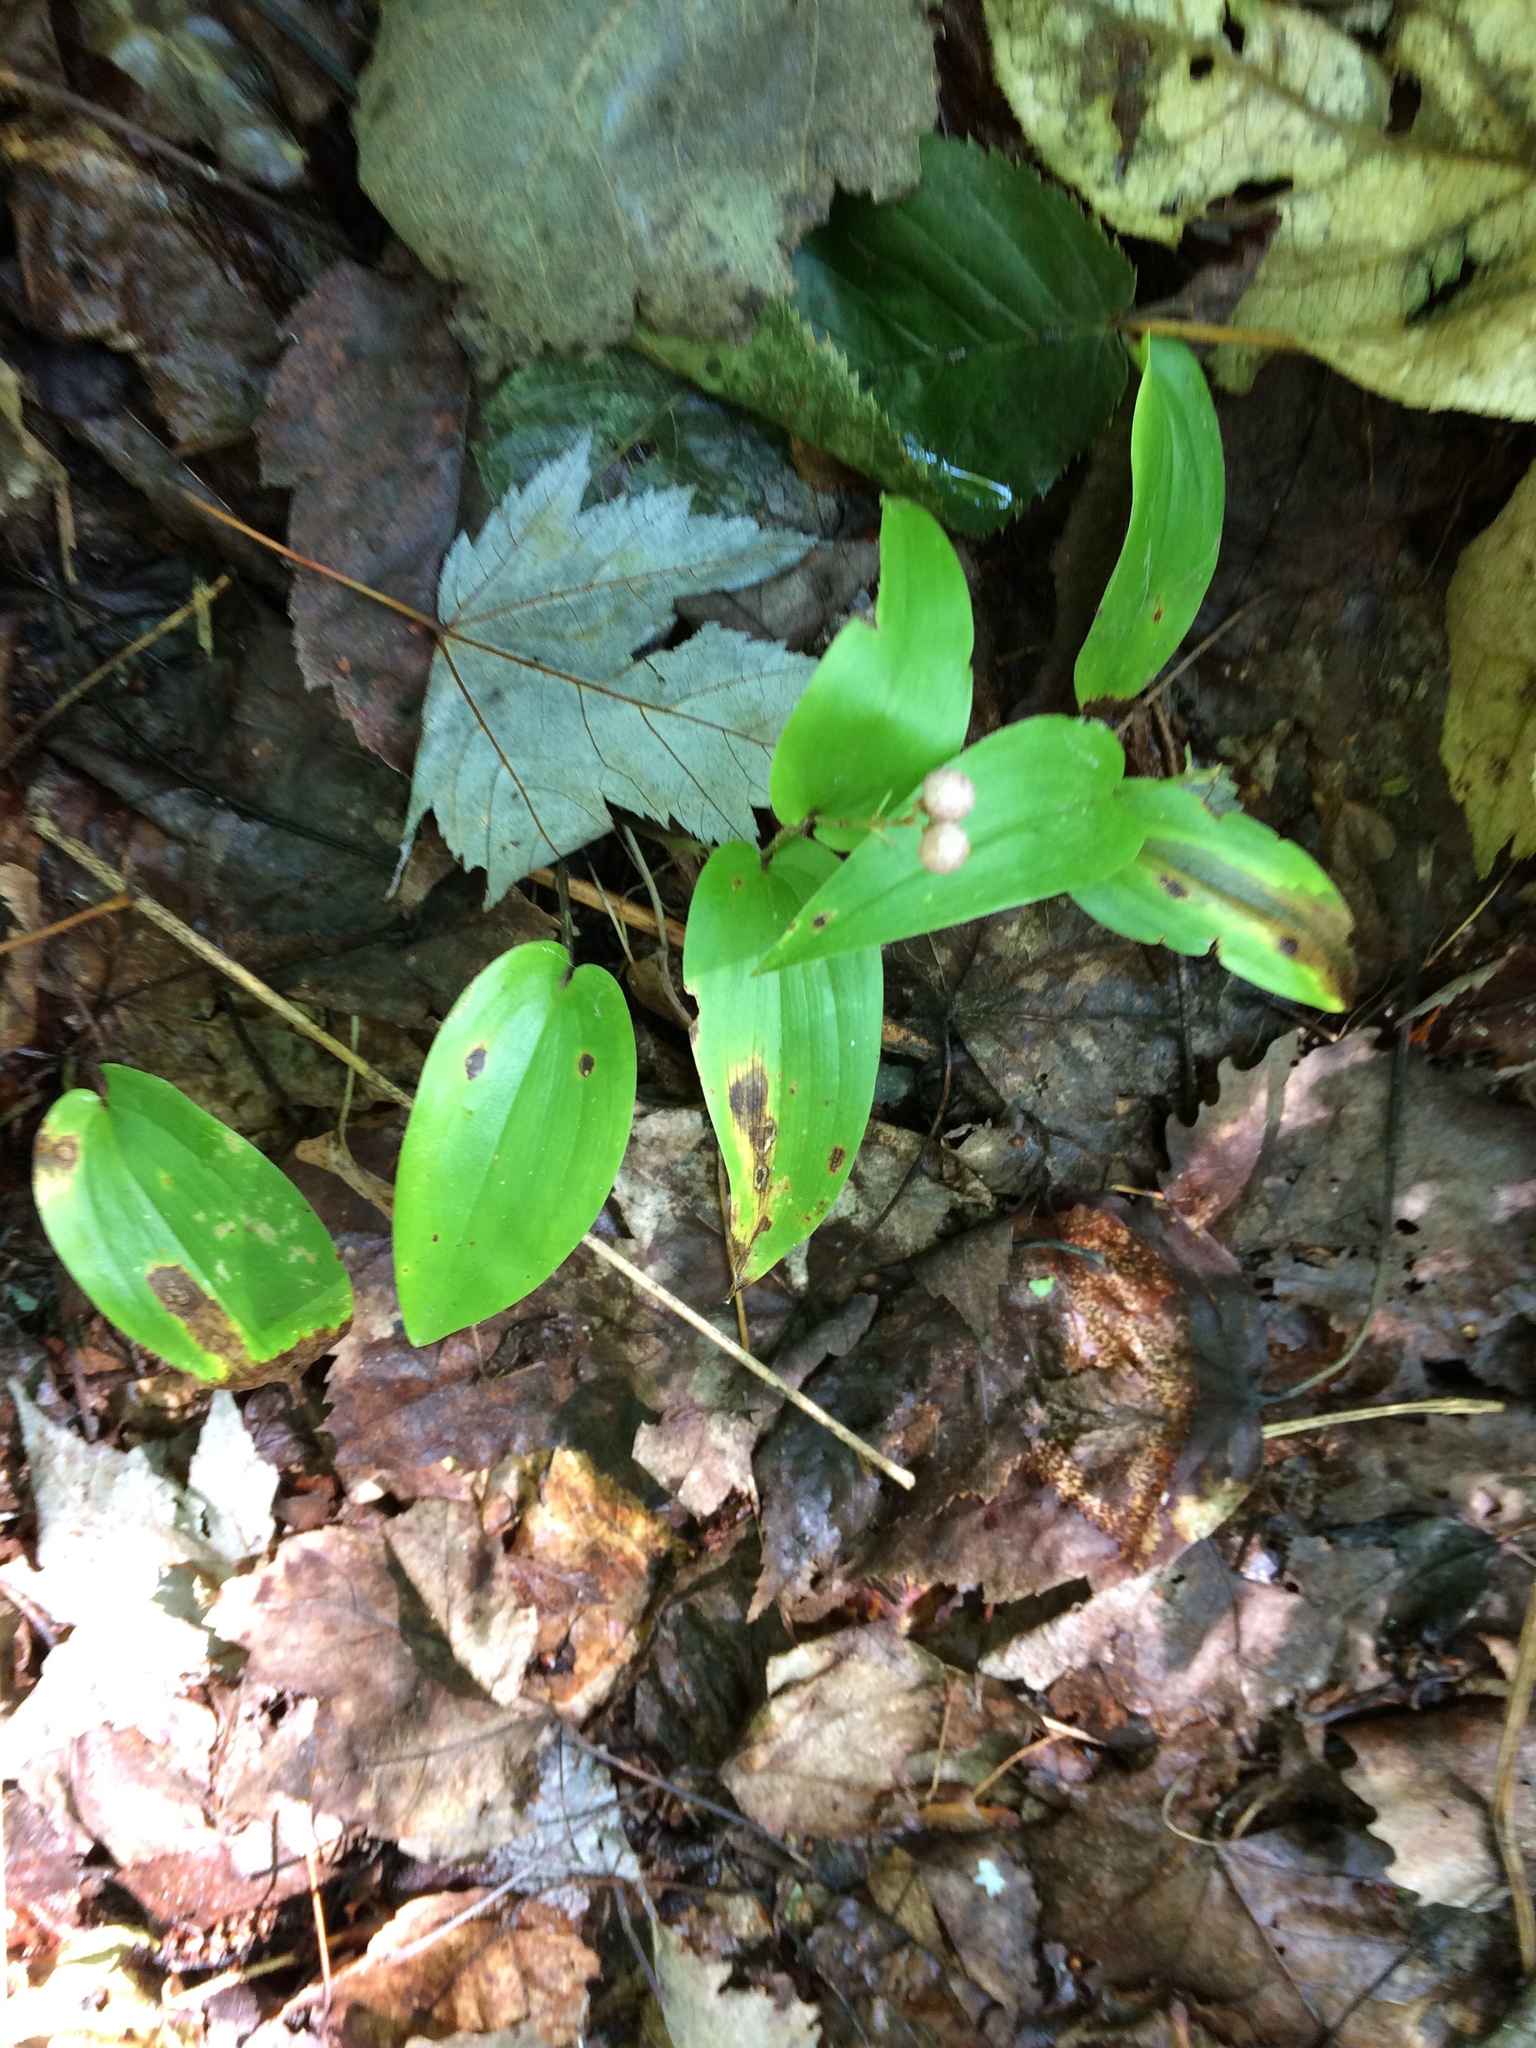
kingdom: Plantae
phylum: Tracheophyta
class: Liliopsida
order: Asparagales
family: Asparagaceae
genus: Maianthemum
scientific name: Maianthemum canadense
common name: False lily-of-the-valley
